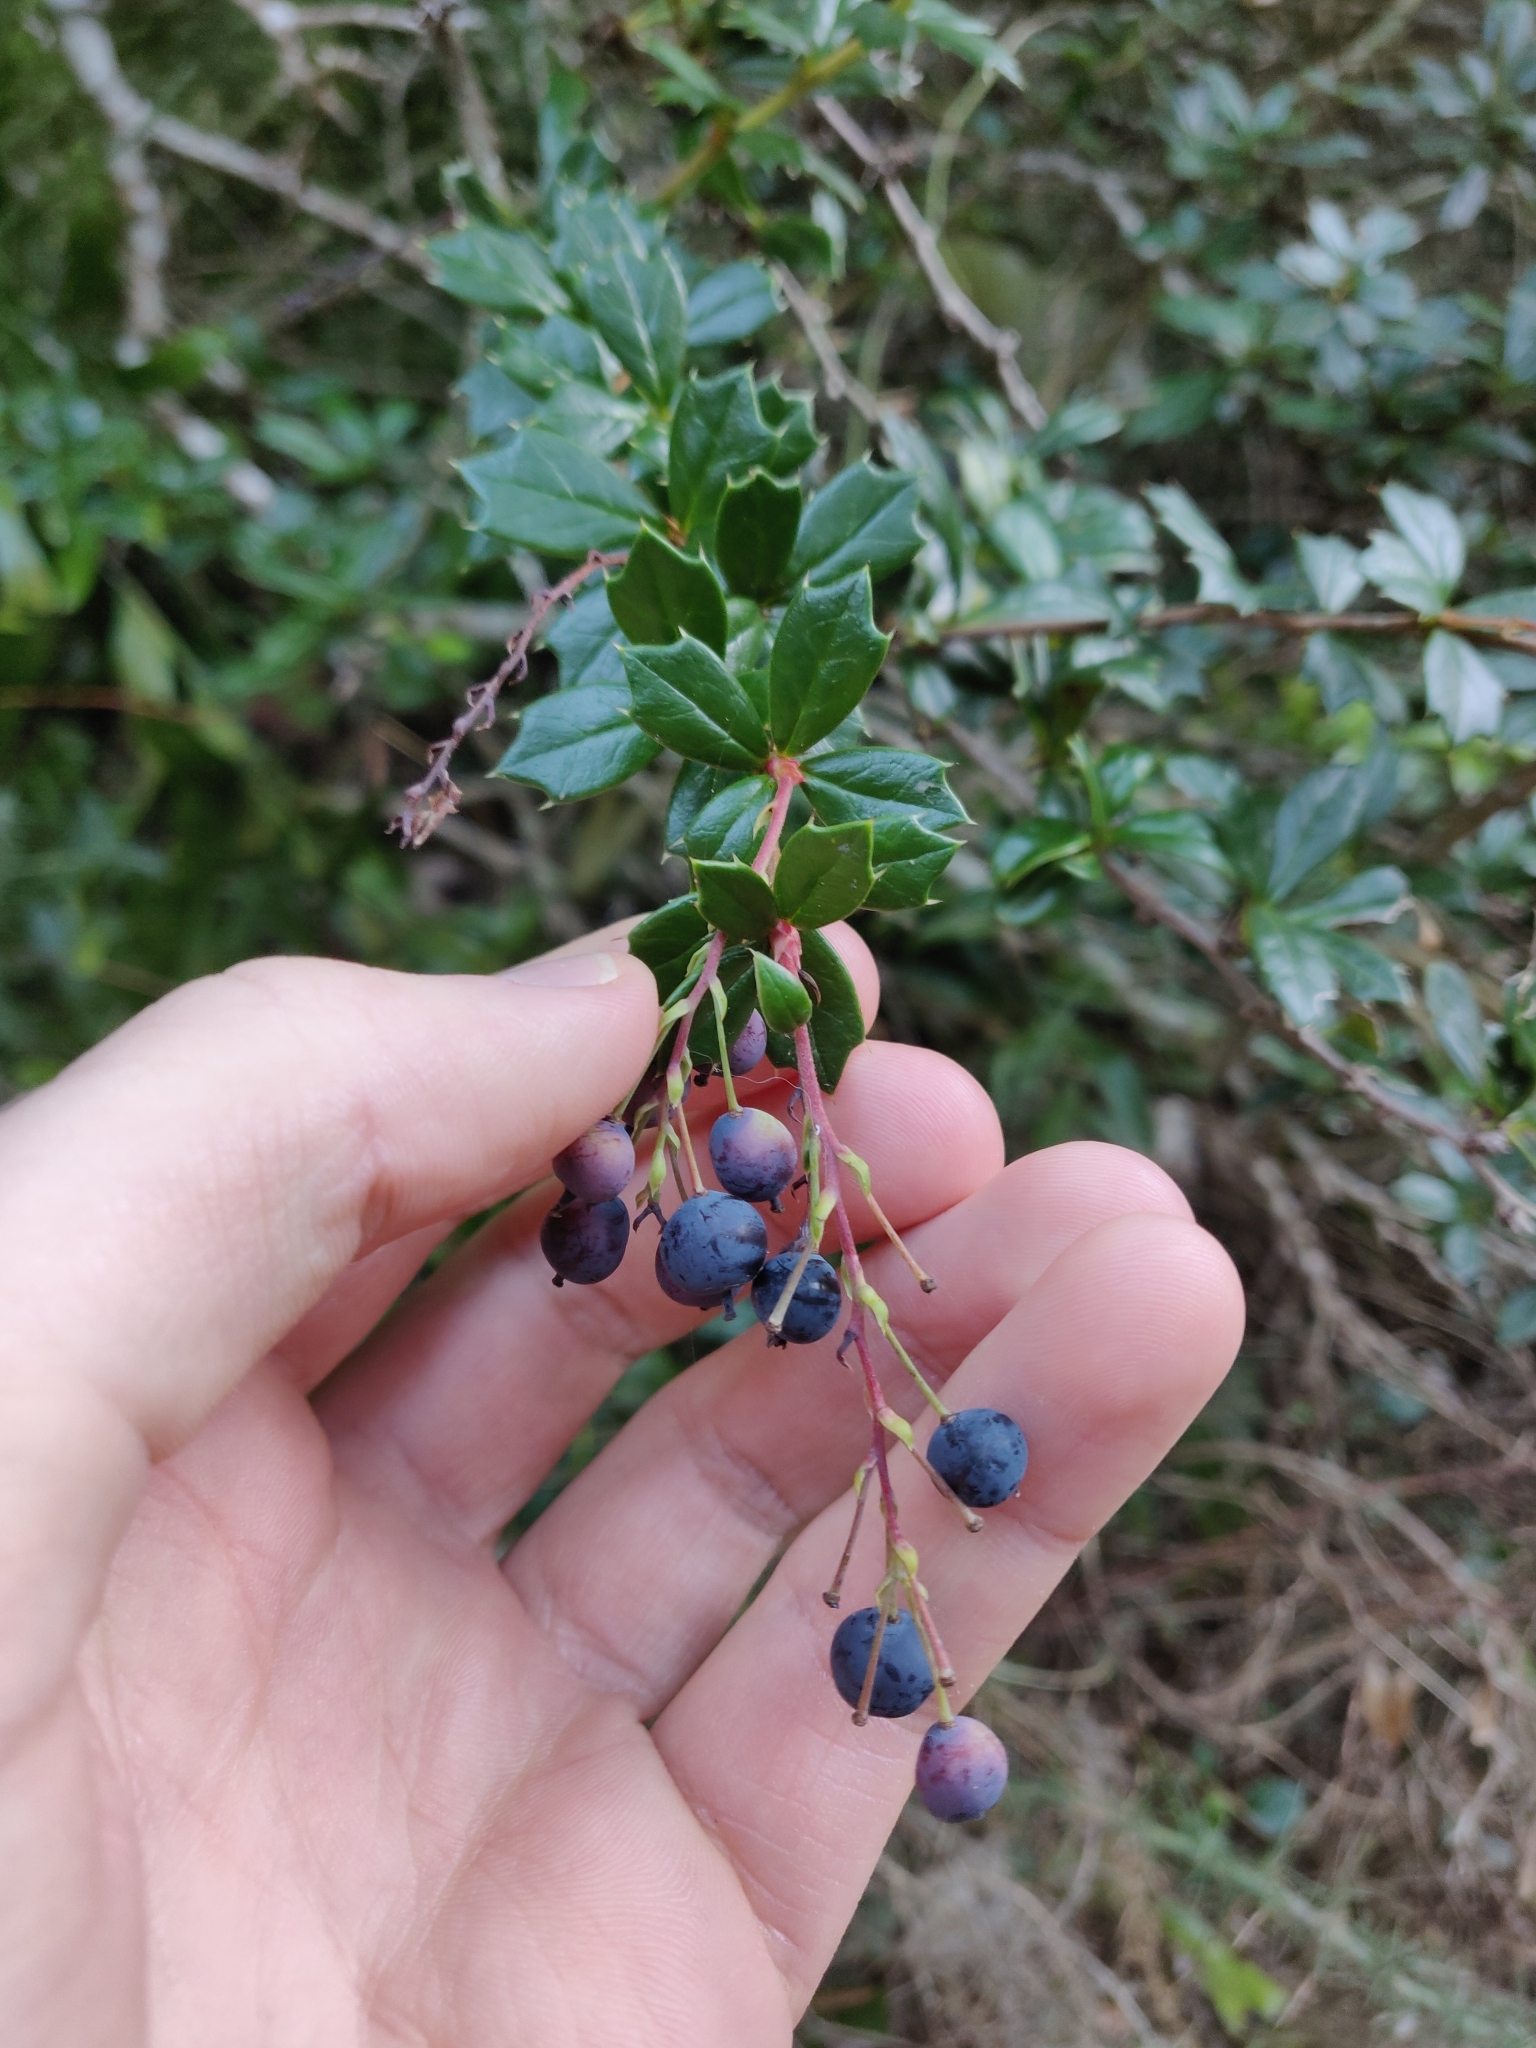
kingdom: Plantae
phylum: Tracheophyta
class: Magnoliopsida
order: Ranunculales
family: Berberidaceae
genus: Berberis
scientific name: Berberis darwinii
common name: Darwin's barberry
